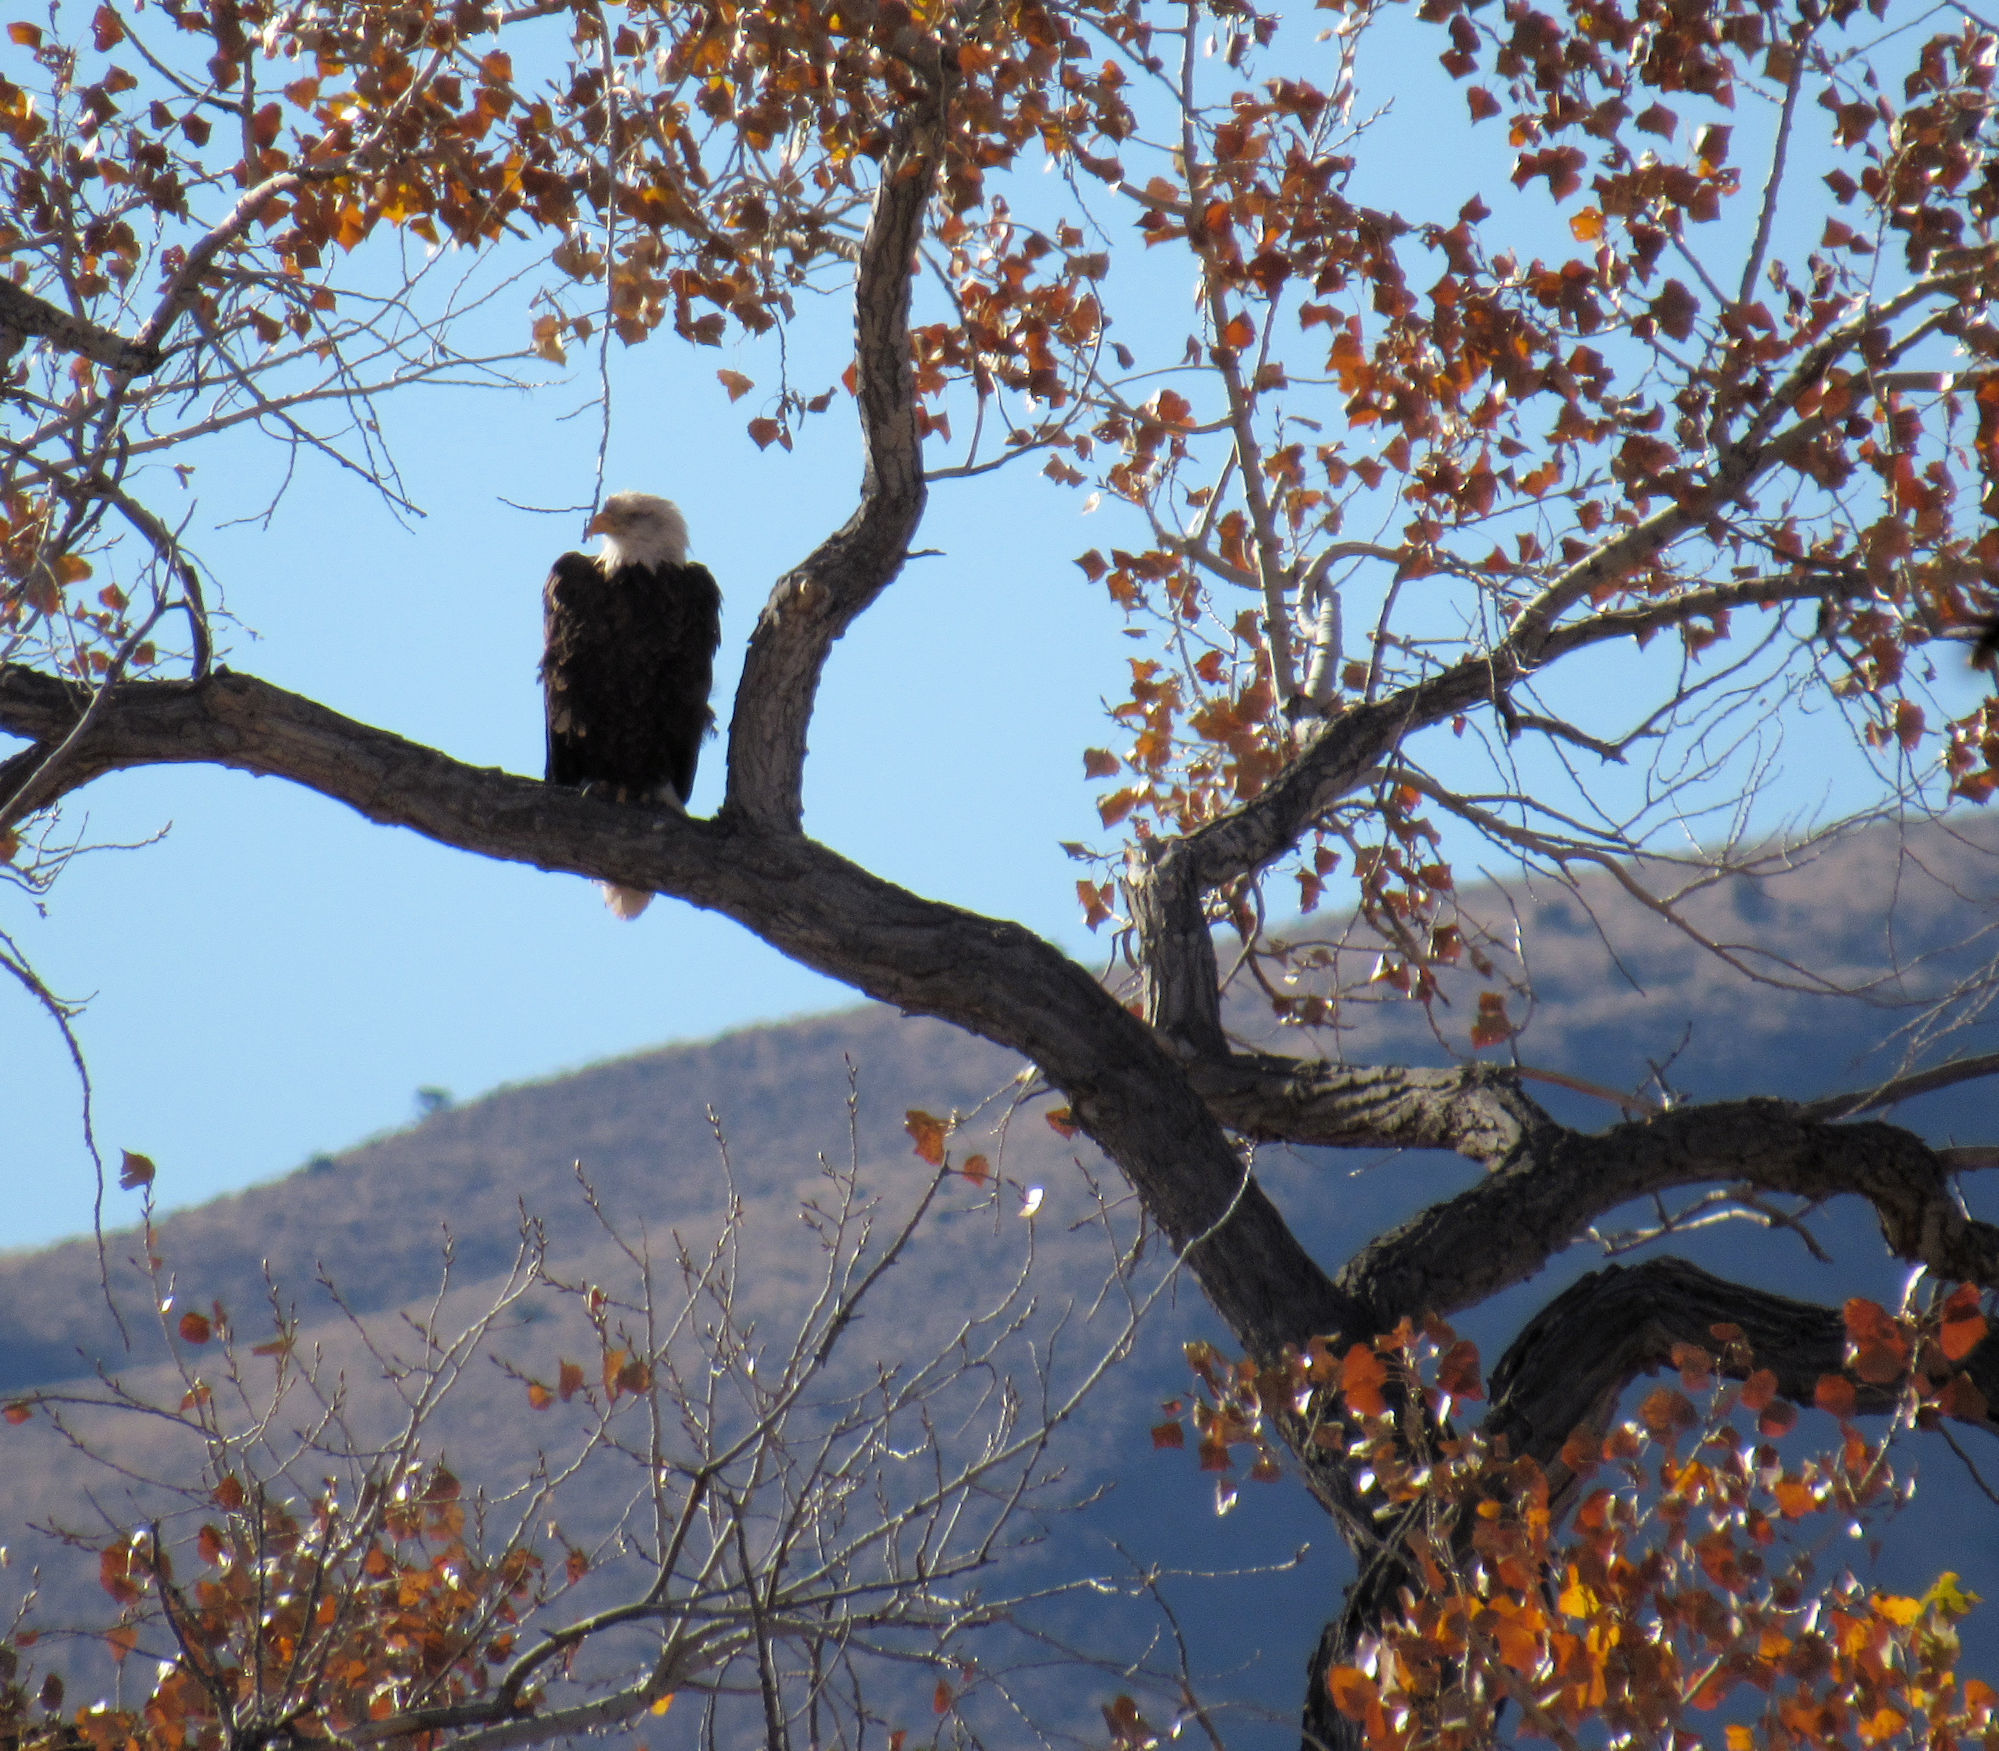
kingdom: Animalia
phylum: Chordata
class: Aves
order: Accipitriformes
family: Accipitridae
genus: Haliaeetus
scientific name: Haliaeetus leucocephalus
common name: Bald eagle
